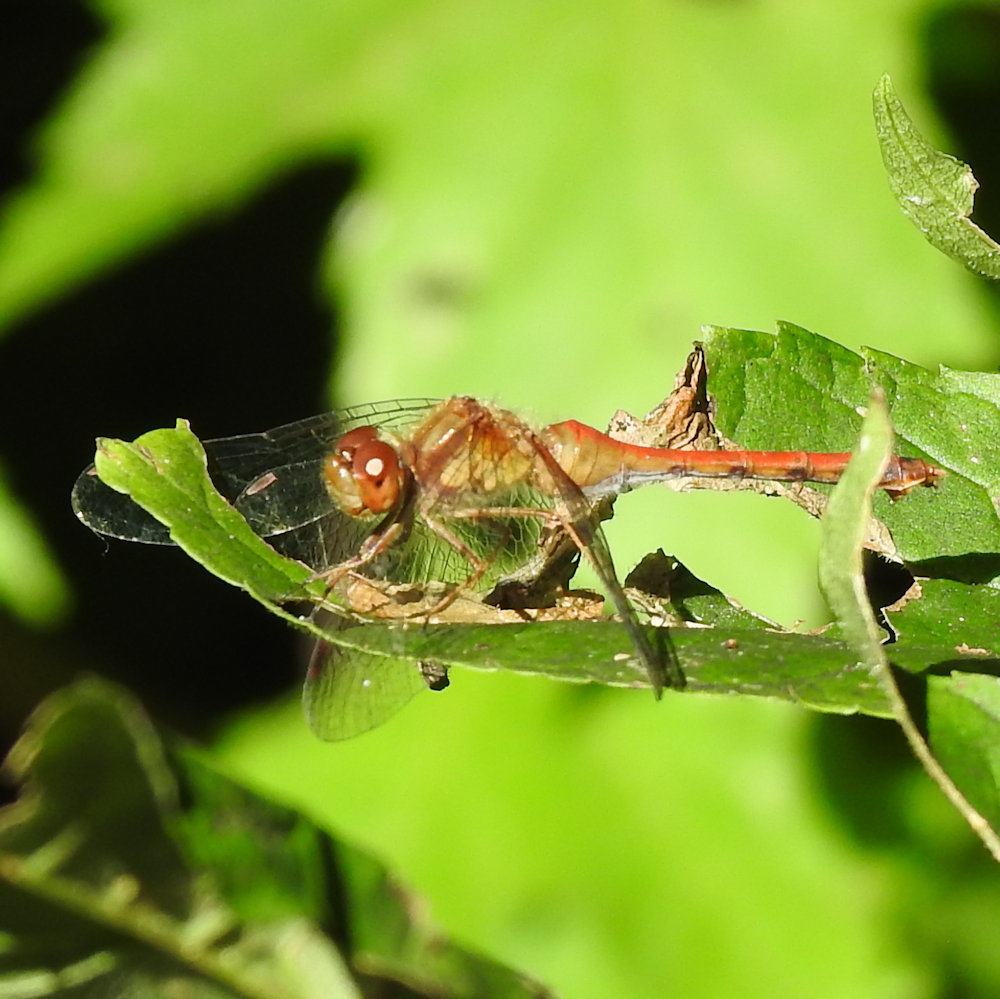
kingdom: Animalia
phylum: Arthropoda
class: Insecta
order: Odonata
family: Libellulidae
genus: Sympetrum
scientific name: Sympetrum vicinum
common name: Autumn meadowhawk
